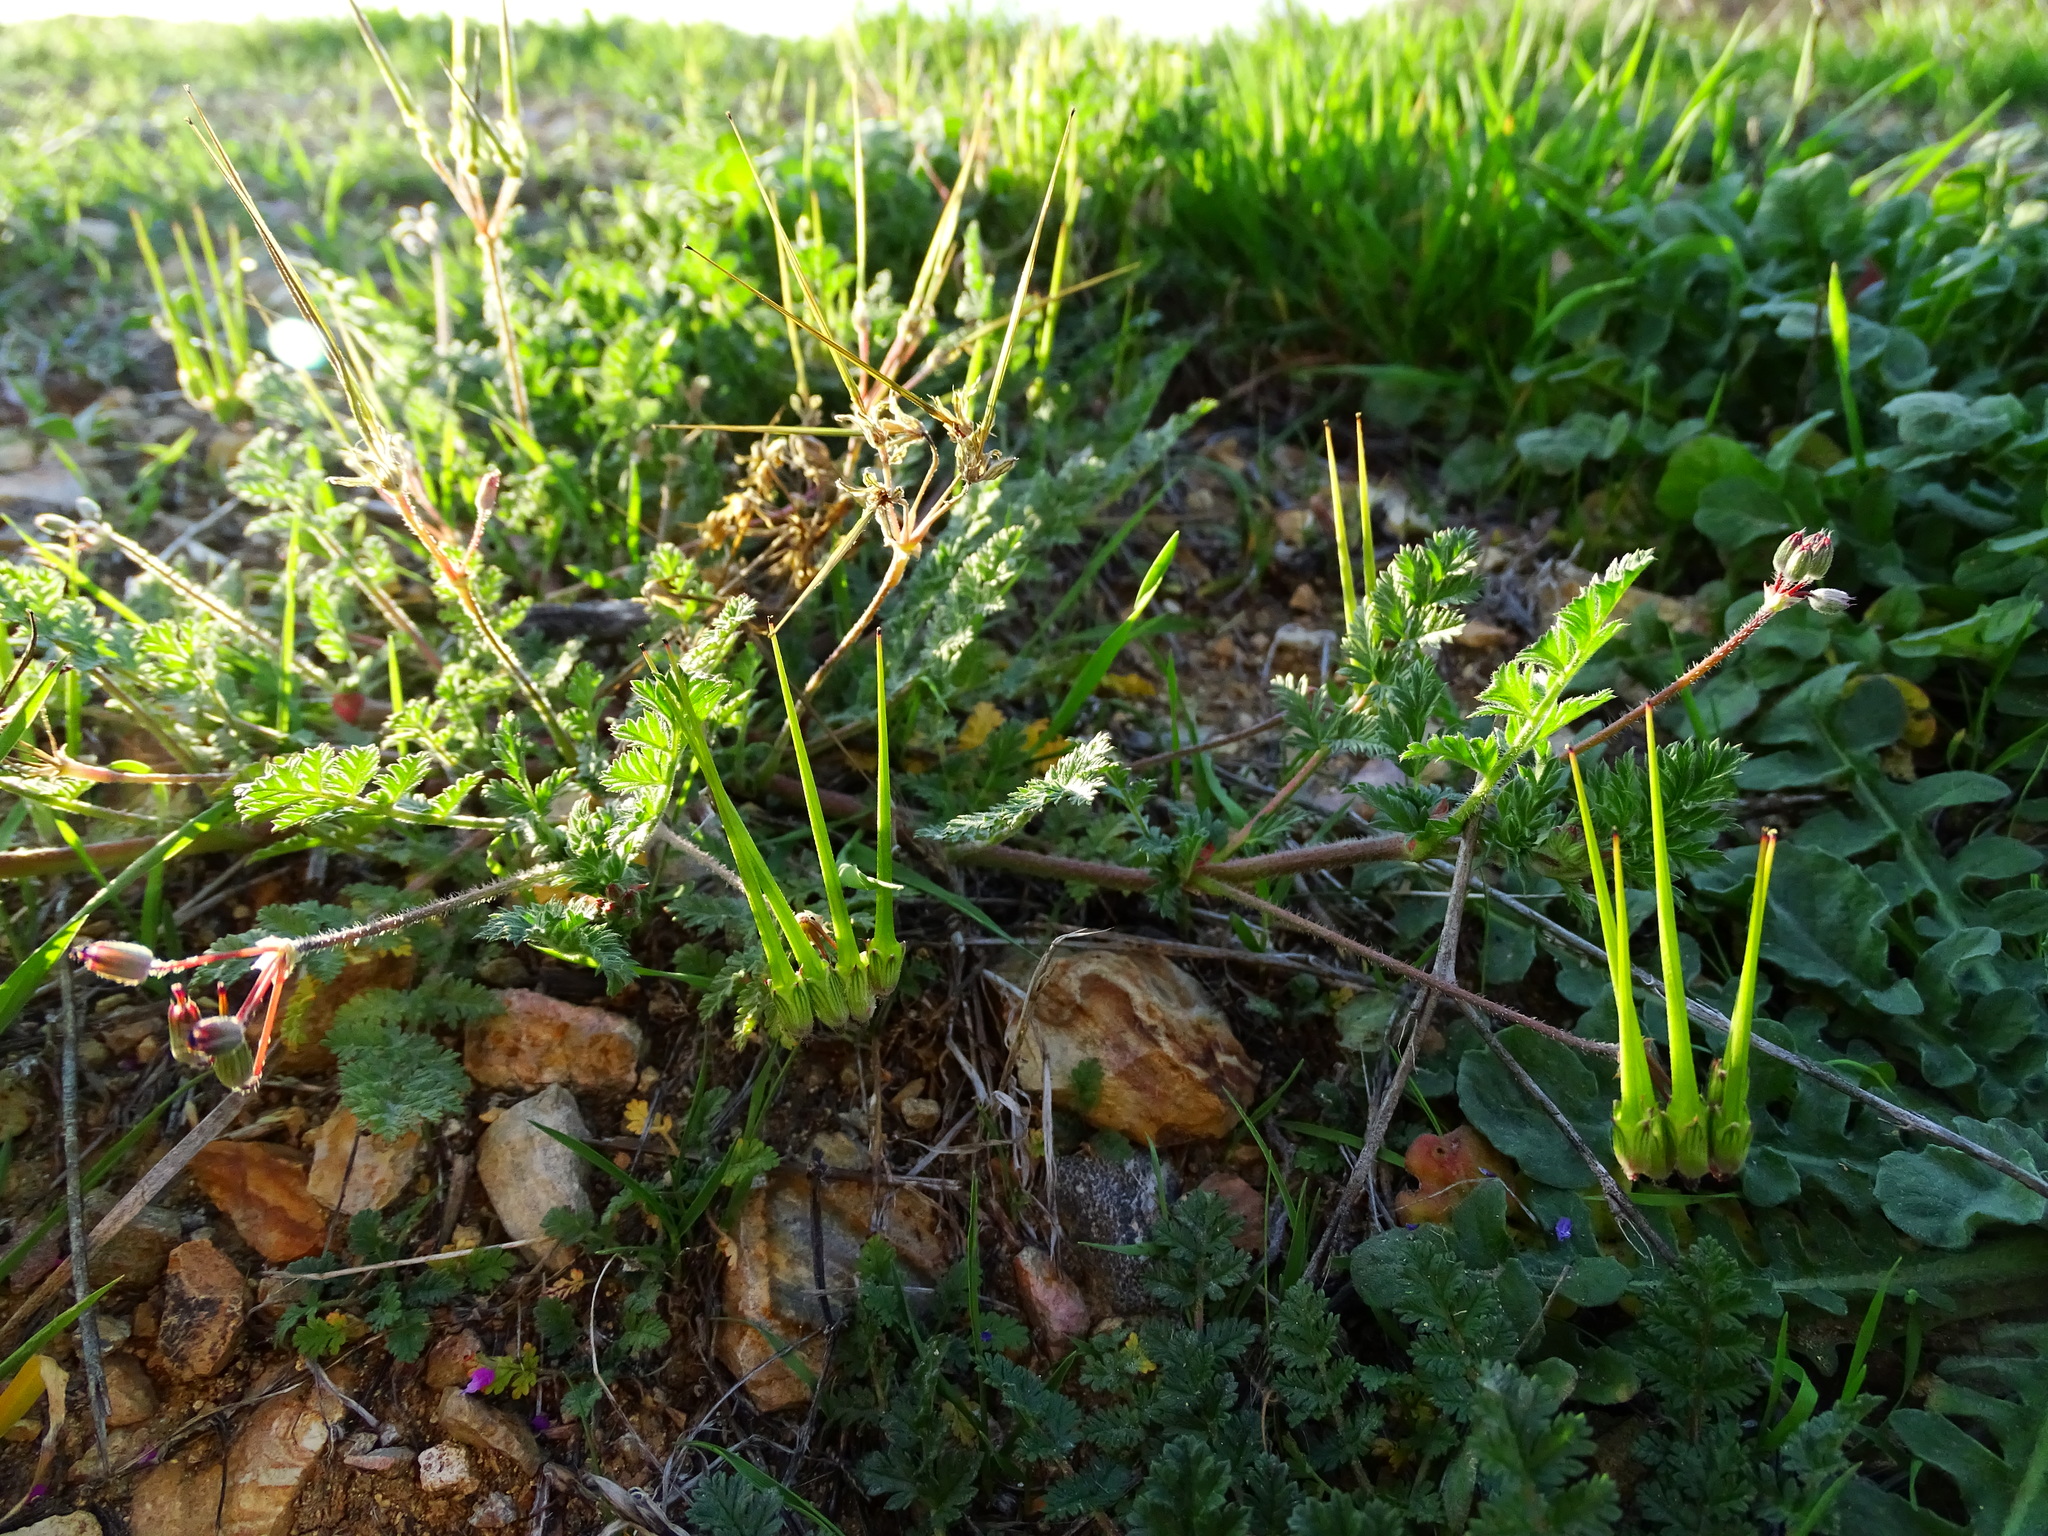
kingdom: Plantae
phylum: Tracheophyta
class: Magnoliopsida
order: Geraniales
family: Geraniaceae
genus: Erodium
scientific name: Erodium cicutarium
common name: Common stork's-bill
